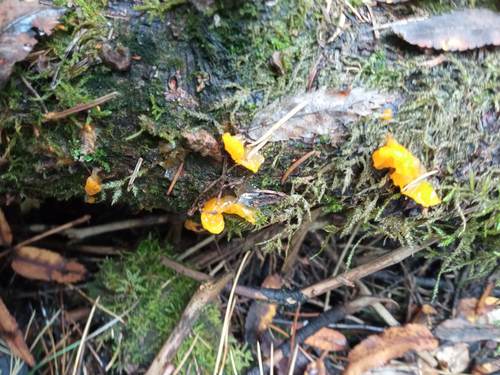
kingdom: Fungi
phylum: Basidiomycota
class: Dacrymycetes
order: Dacrymycetales
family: Dacrymycetaceae
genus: Dacrymyces
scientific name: Dacrymyces chrysospermus
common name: Orange jelly spot
